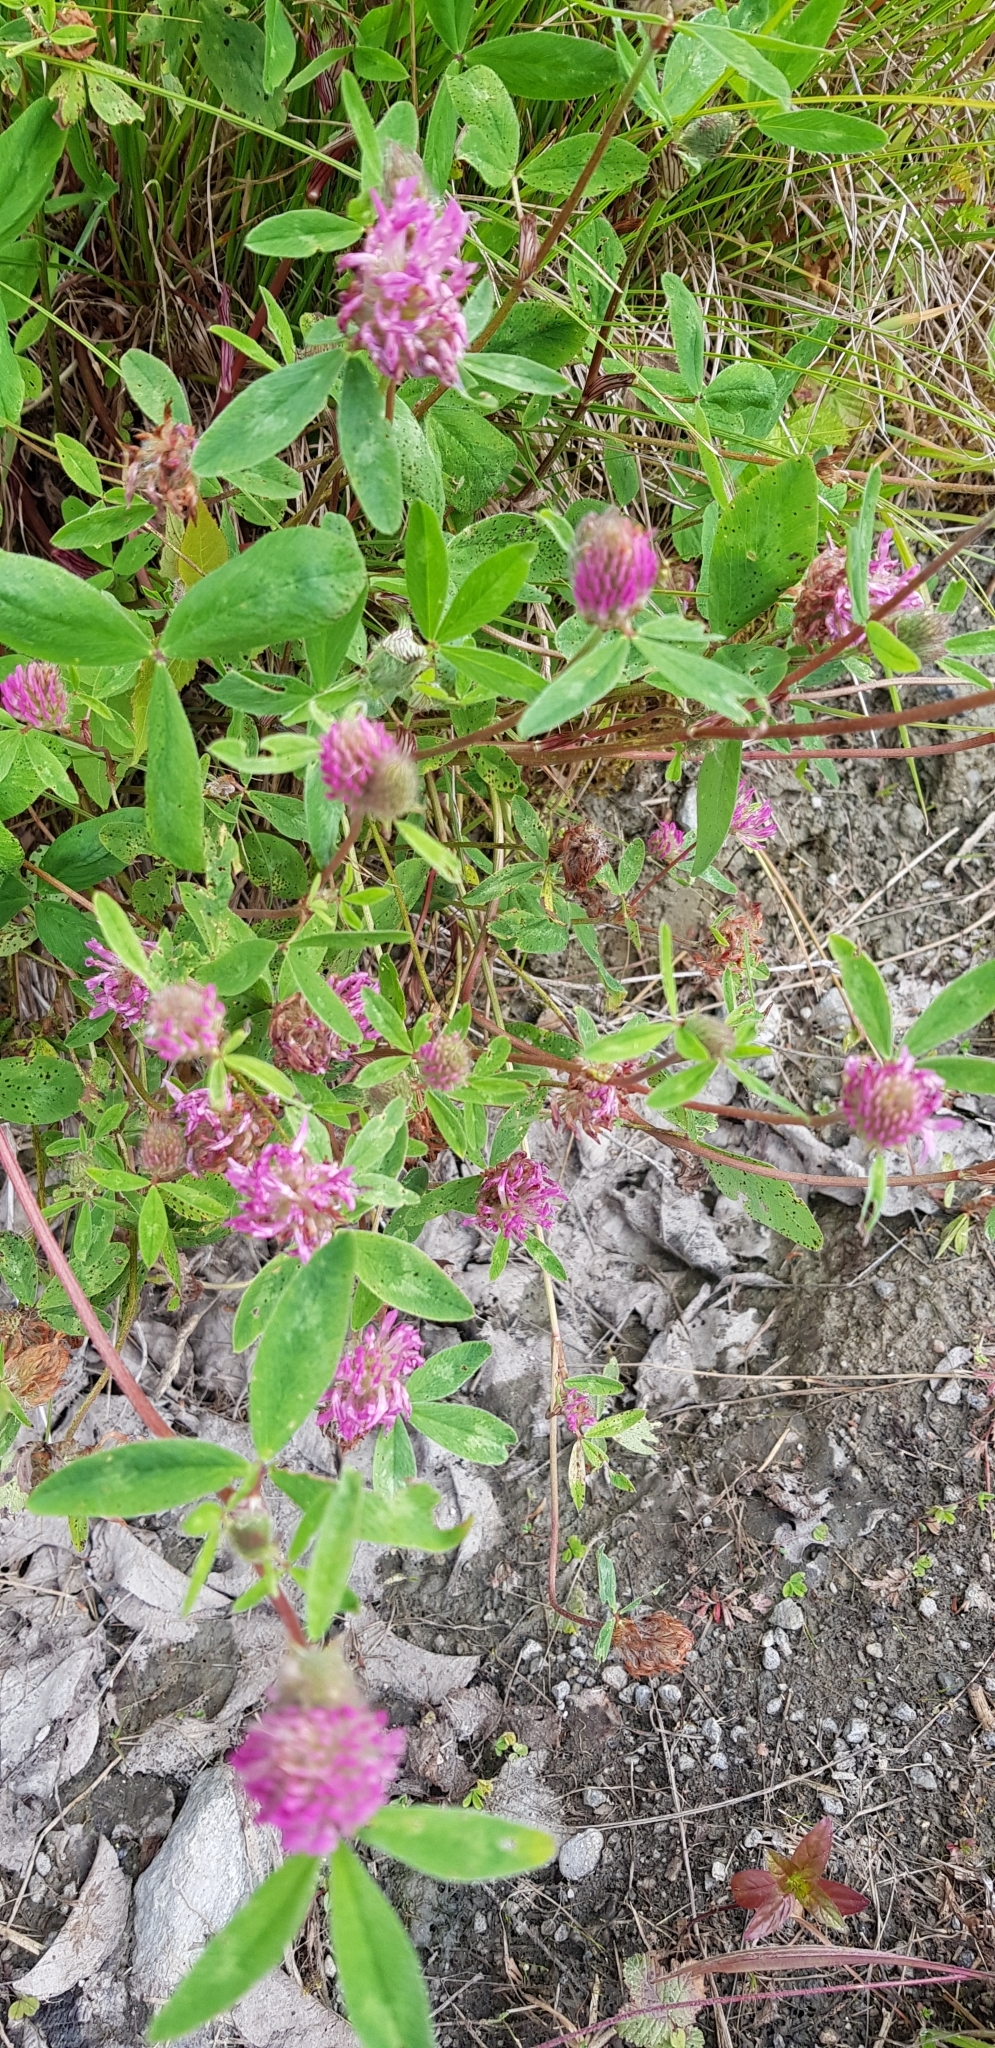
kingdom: Plantae
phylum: Tracheophyta
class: Magnoliopsida
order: Fabales
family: Fabaceae
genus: Trifolium
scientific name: Trifolium pratense
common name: Red clover
